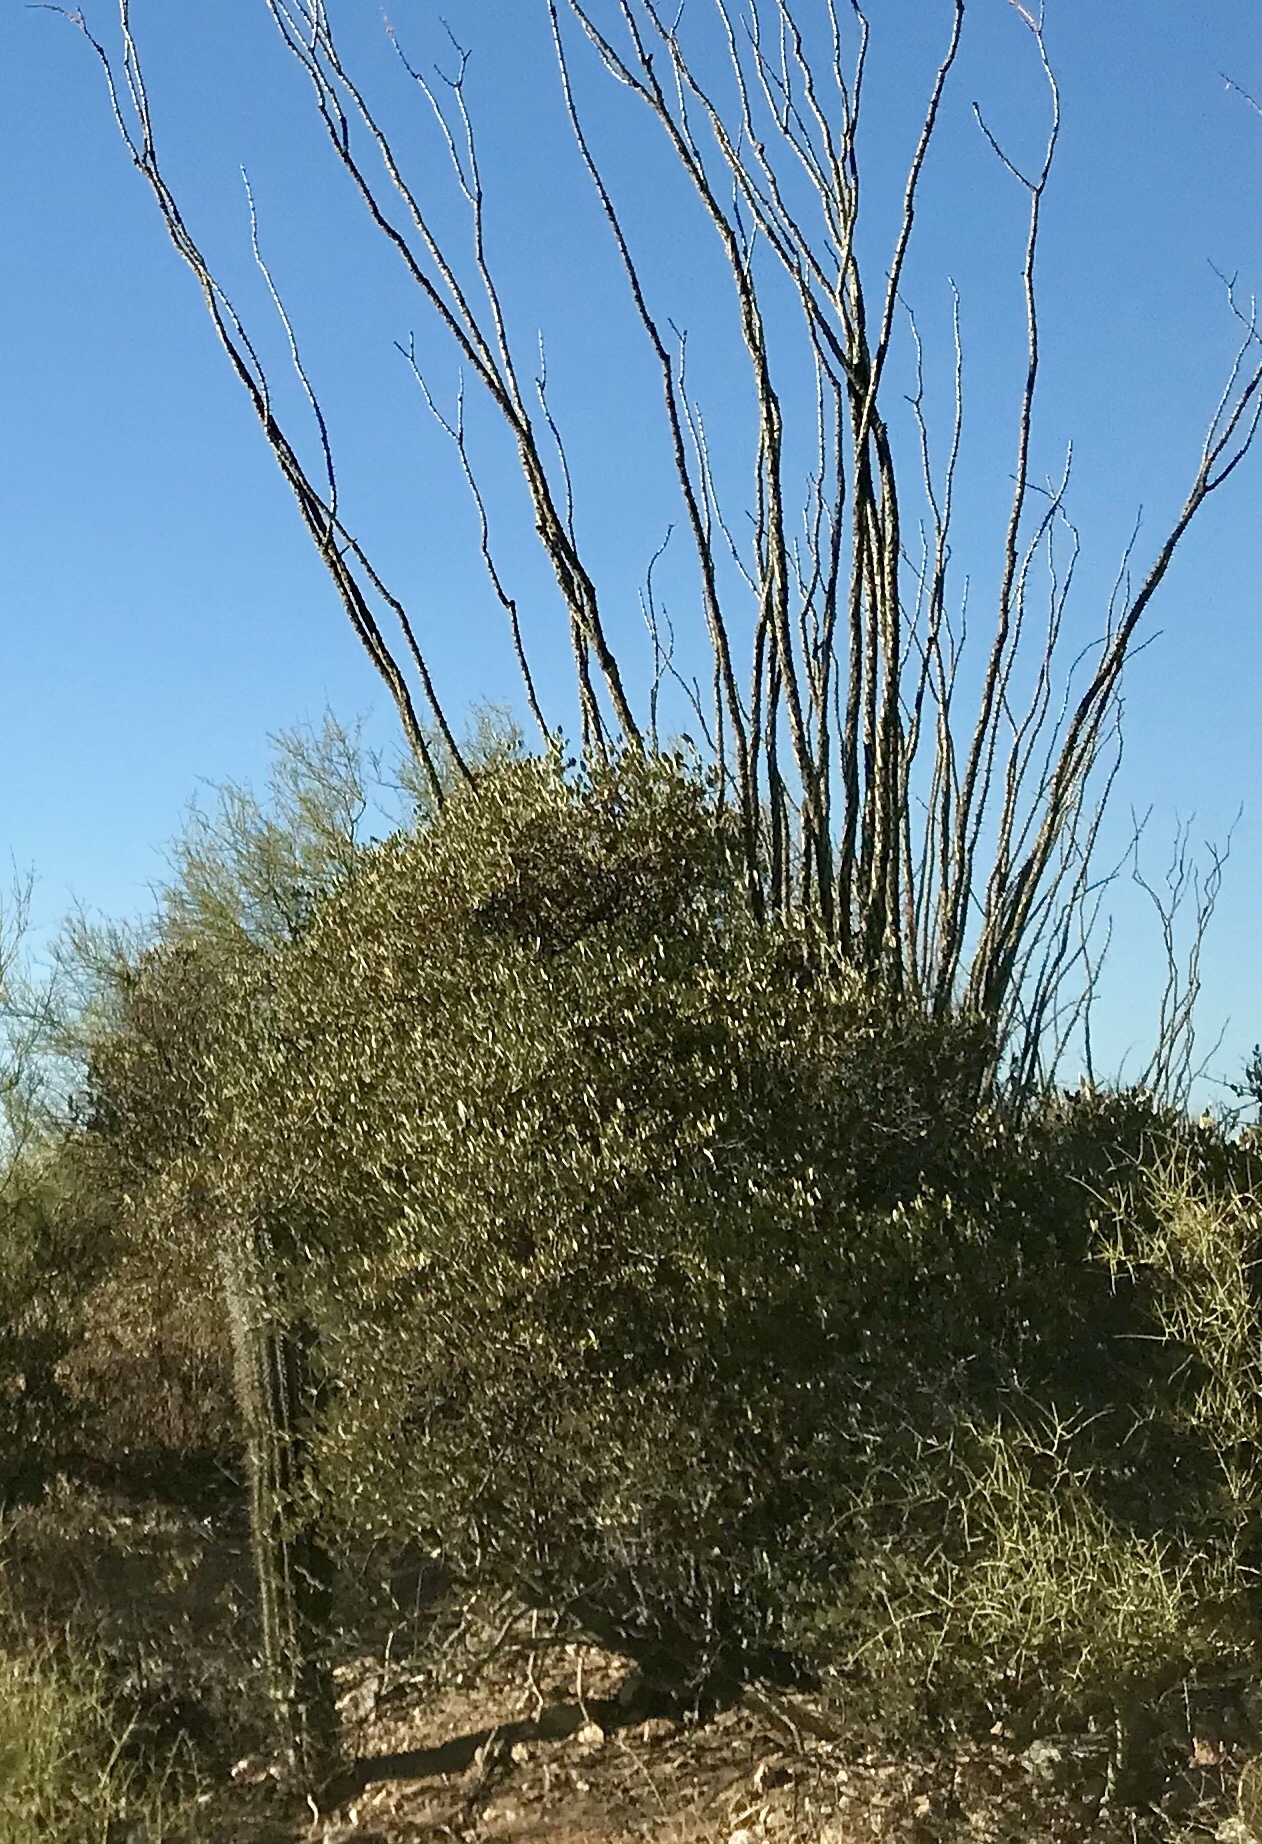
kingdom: Plantae
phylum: Tracheophyta
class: Magnoliopsida
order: Caryophyllales
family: Simmondsiaceae
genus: Simmondsia
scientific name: Simmondsia chinensis
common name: Jojoba
